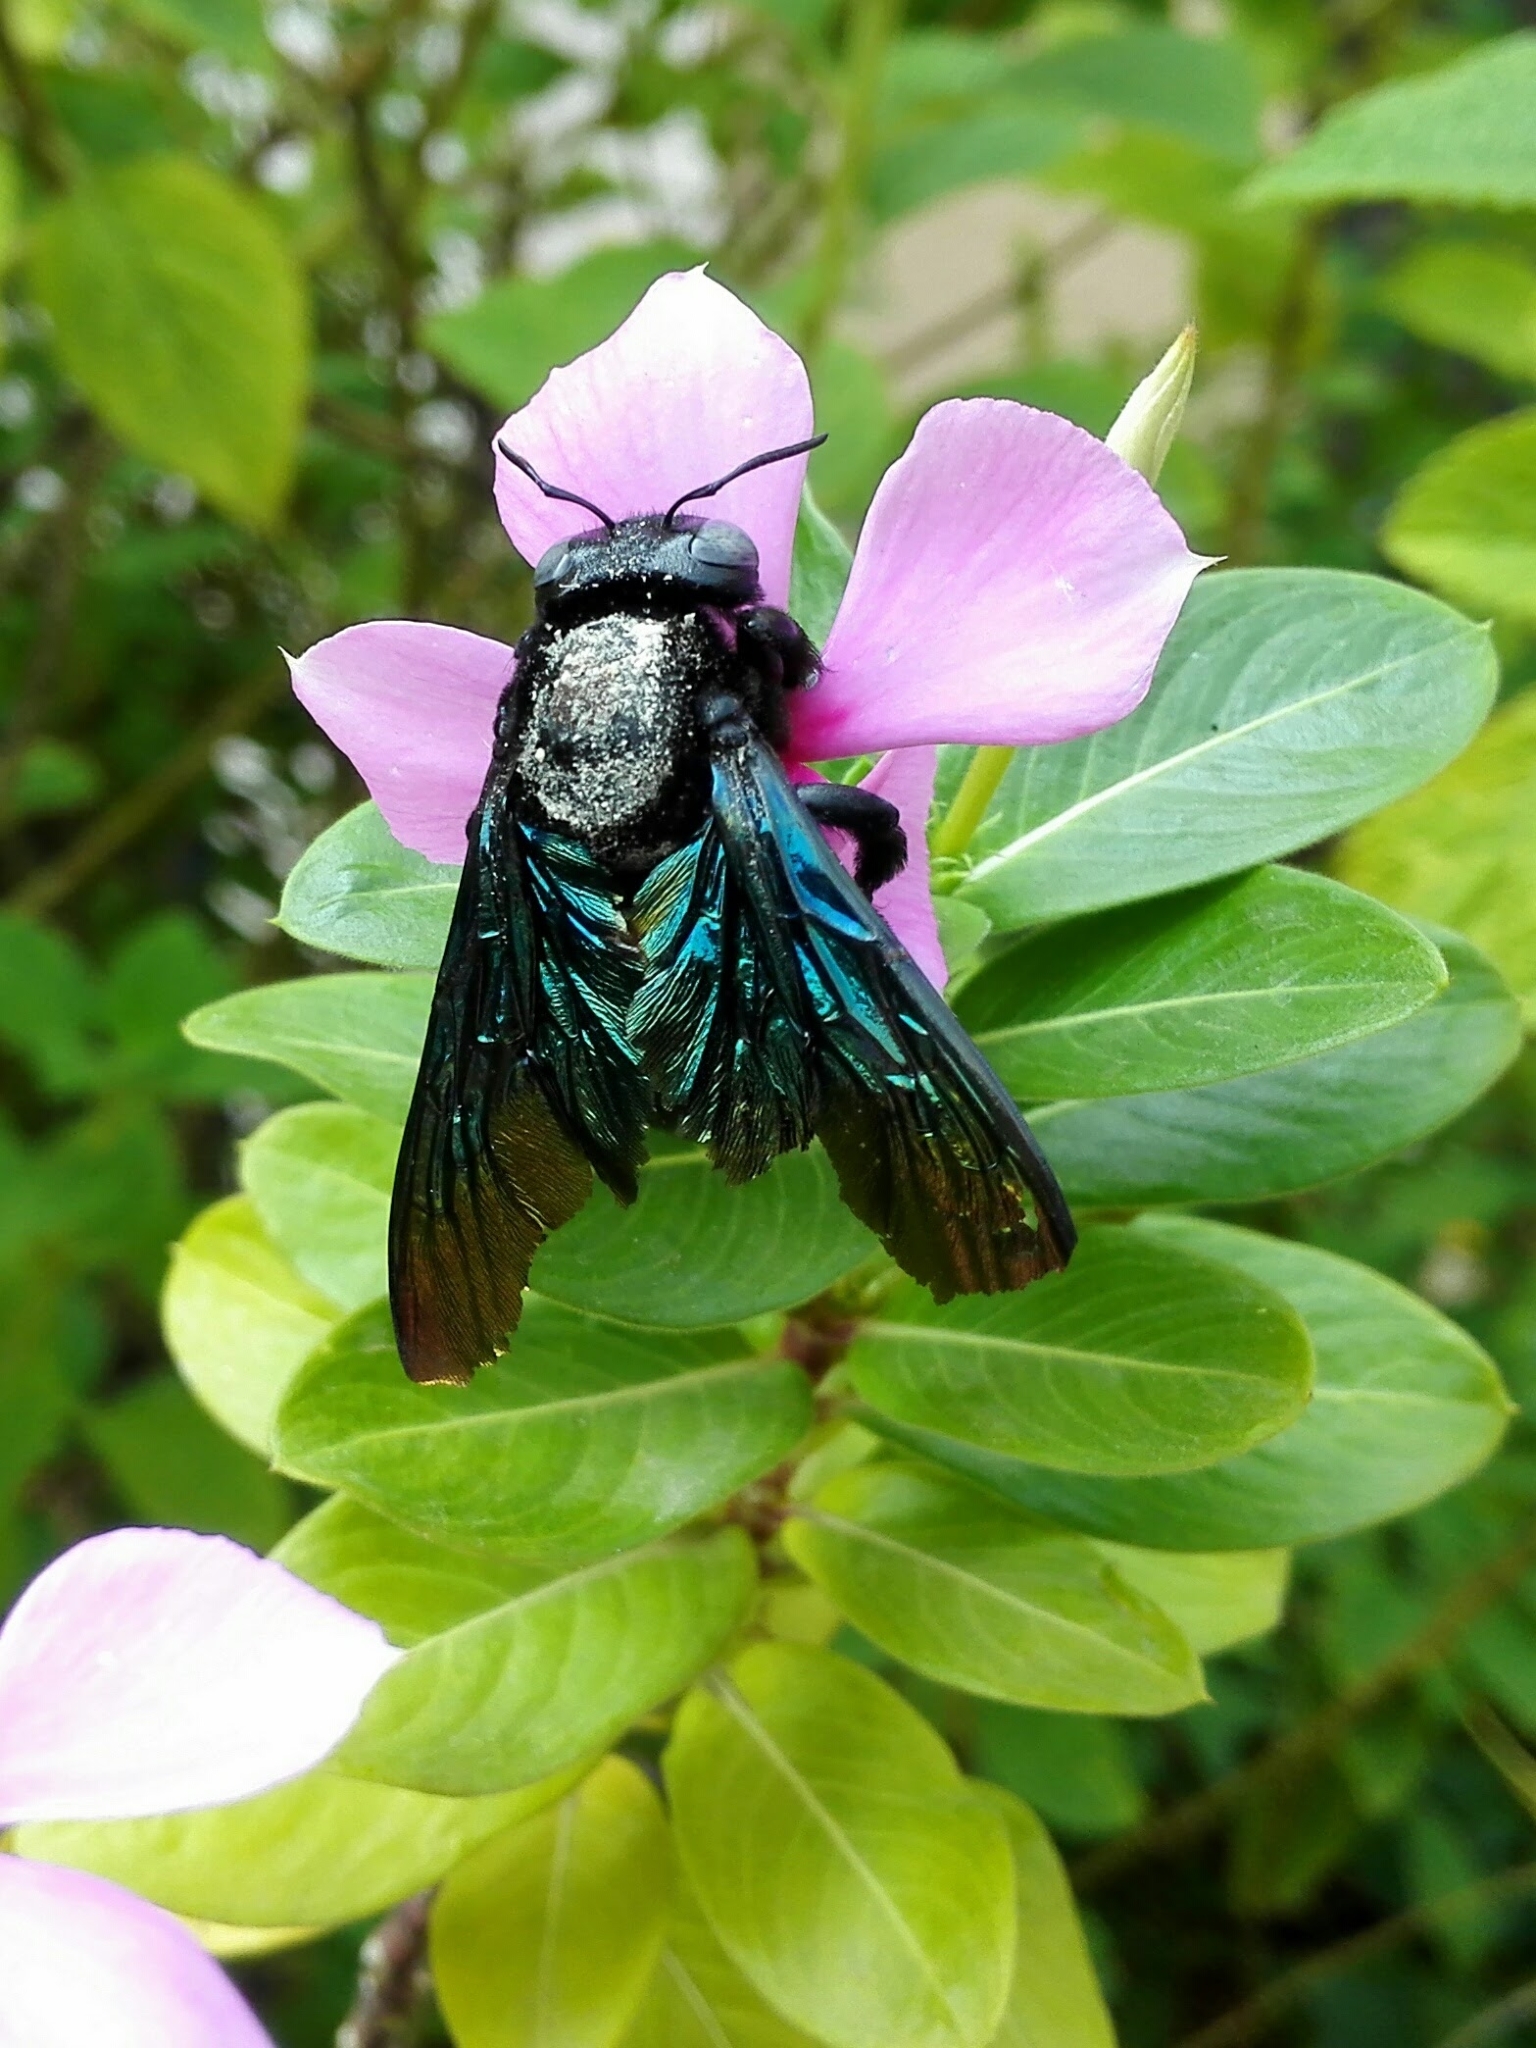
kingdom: Animalia
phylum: Arthropoda
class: Insecta
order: Hymenoptera
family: Apidae
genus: Xylocopa
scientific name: Xylocopa auripennis
